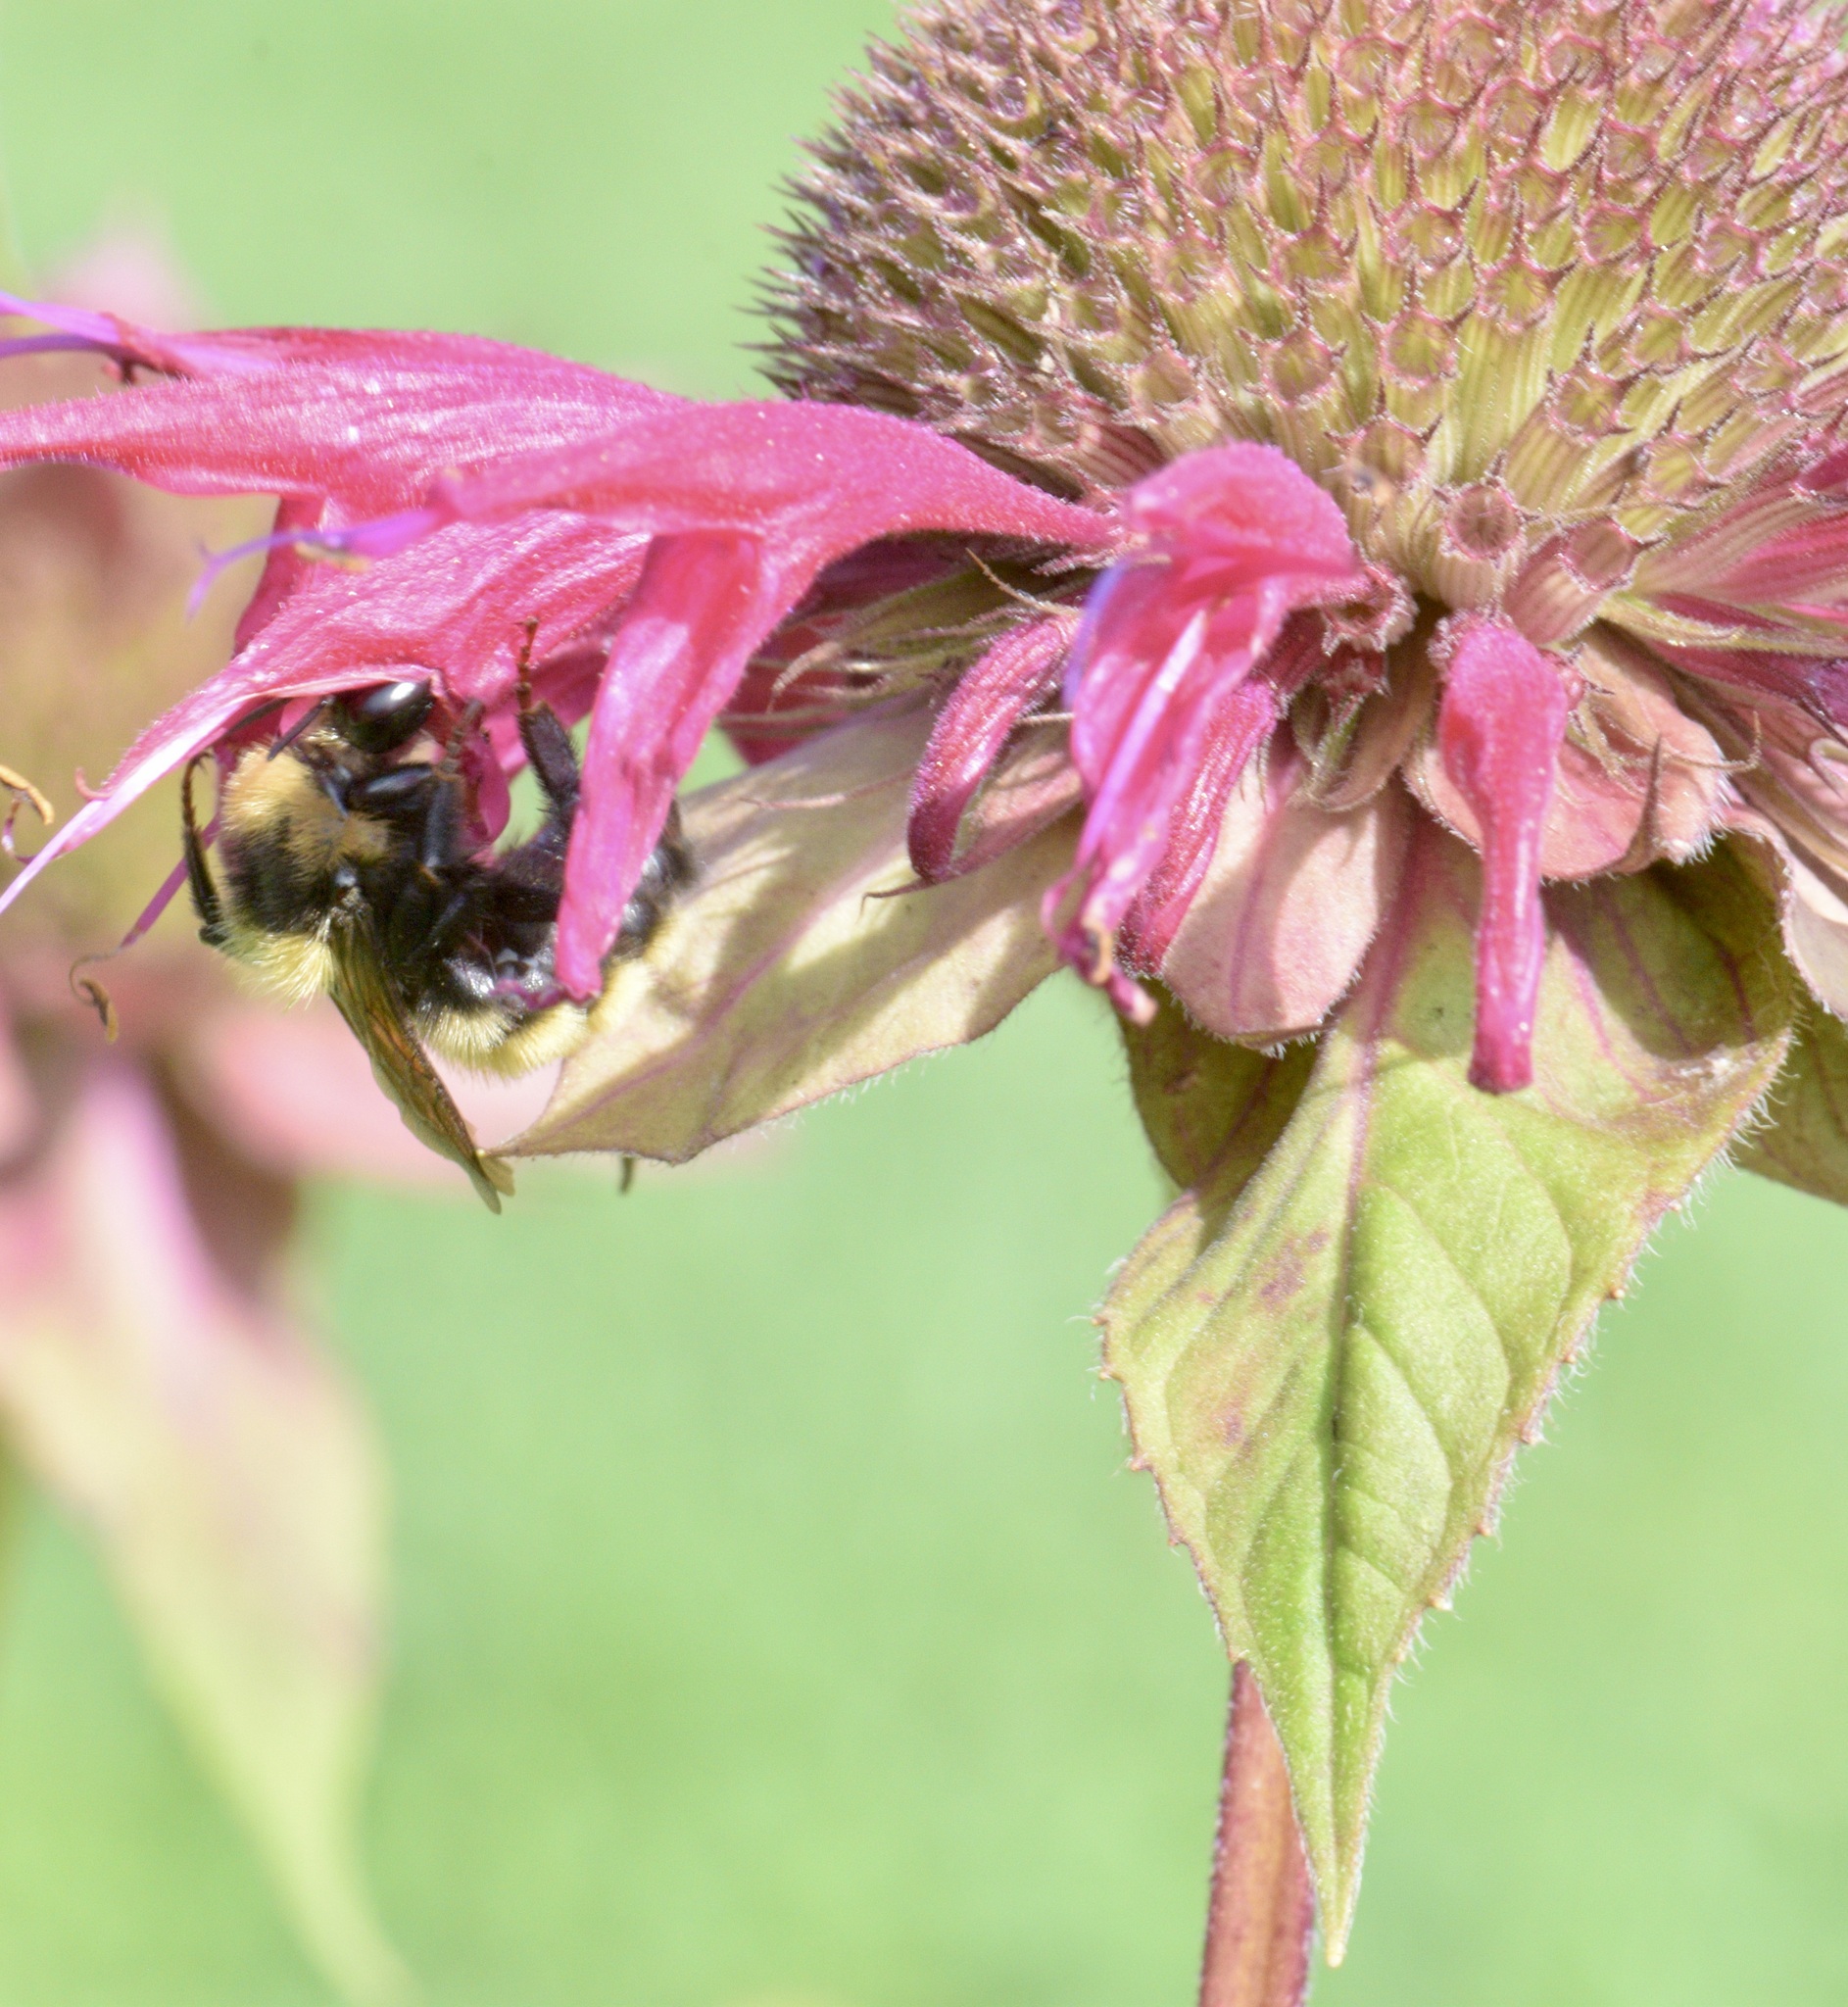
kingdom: Animalia
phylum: Arthropoda
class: Insecta
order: Hymenoptera
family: Apidae
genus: Bombus
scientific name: Bombus borealis
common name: Northern amber bumble bee
